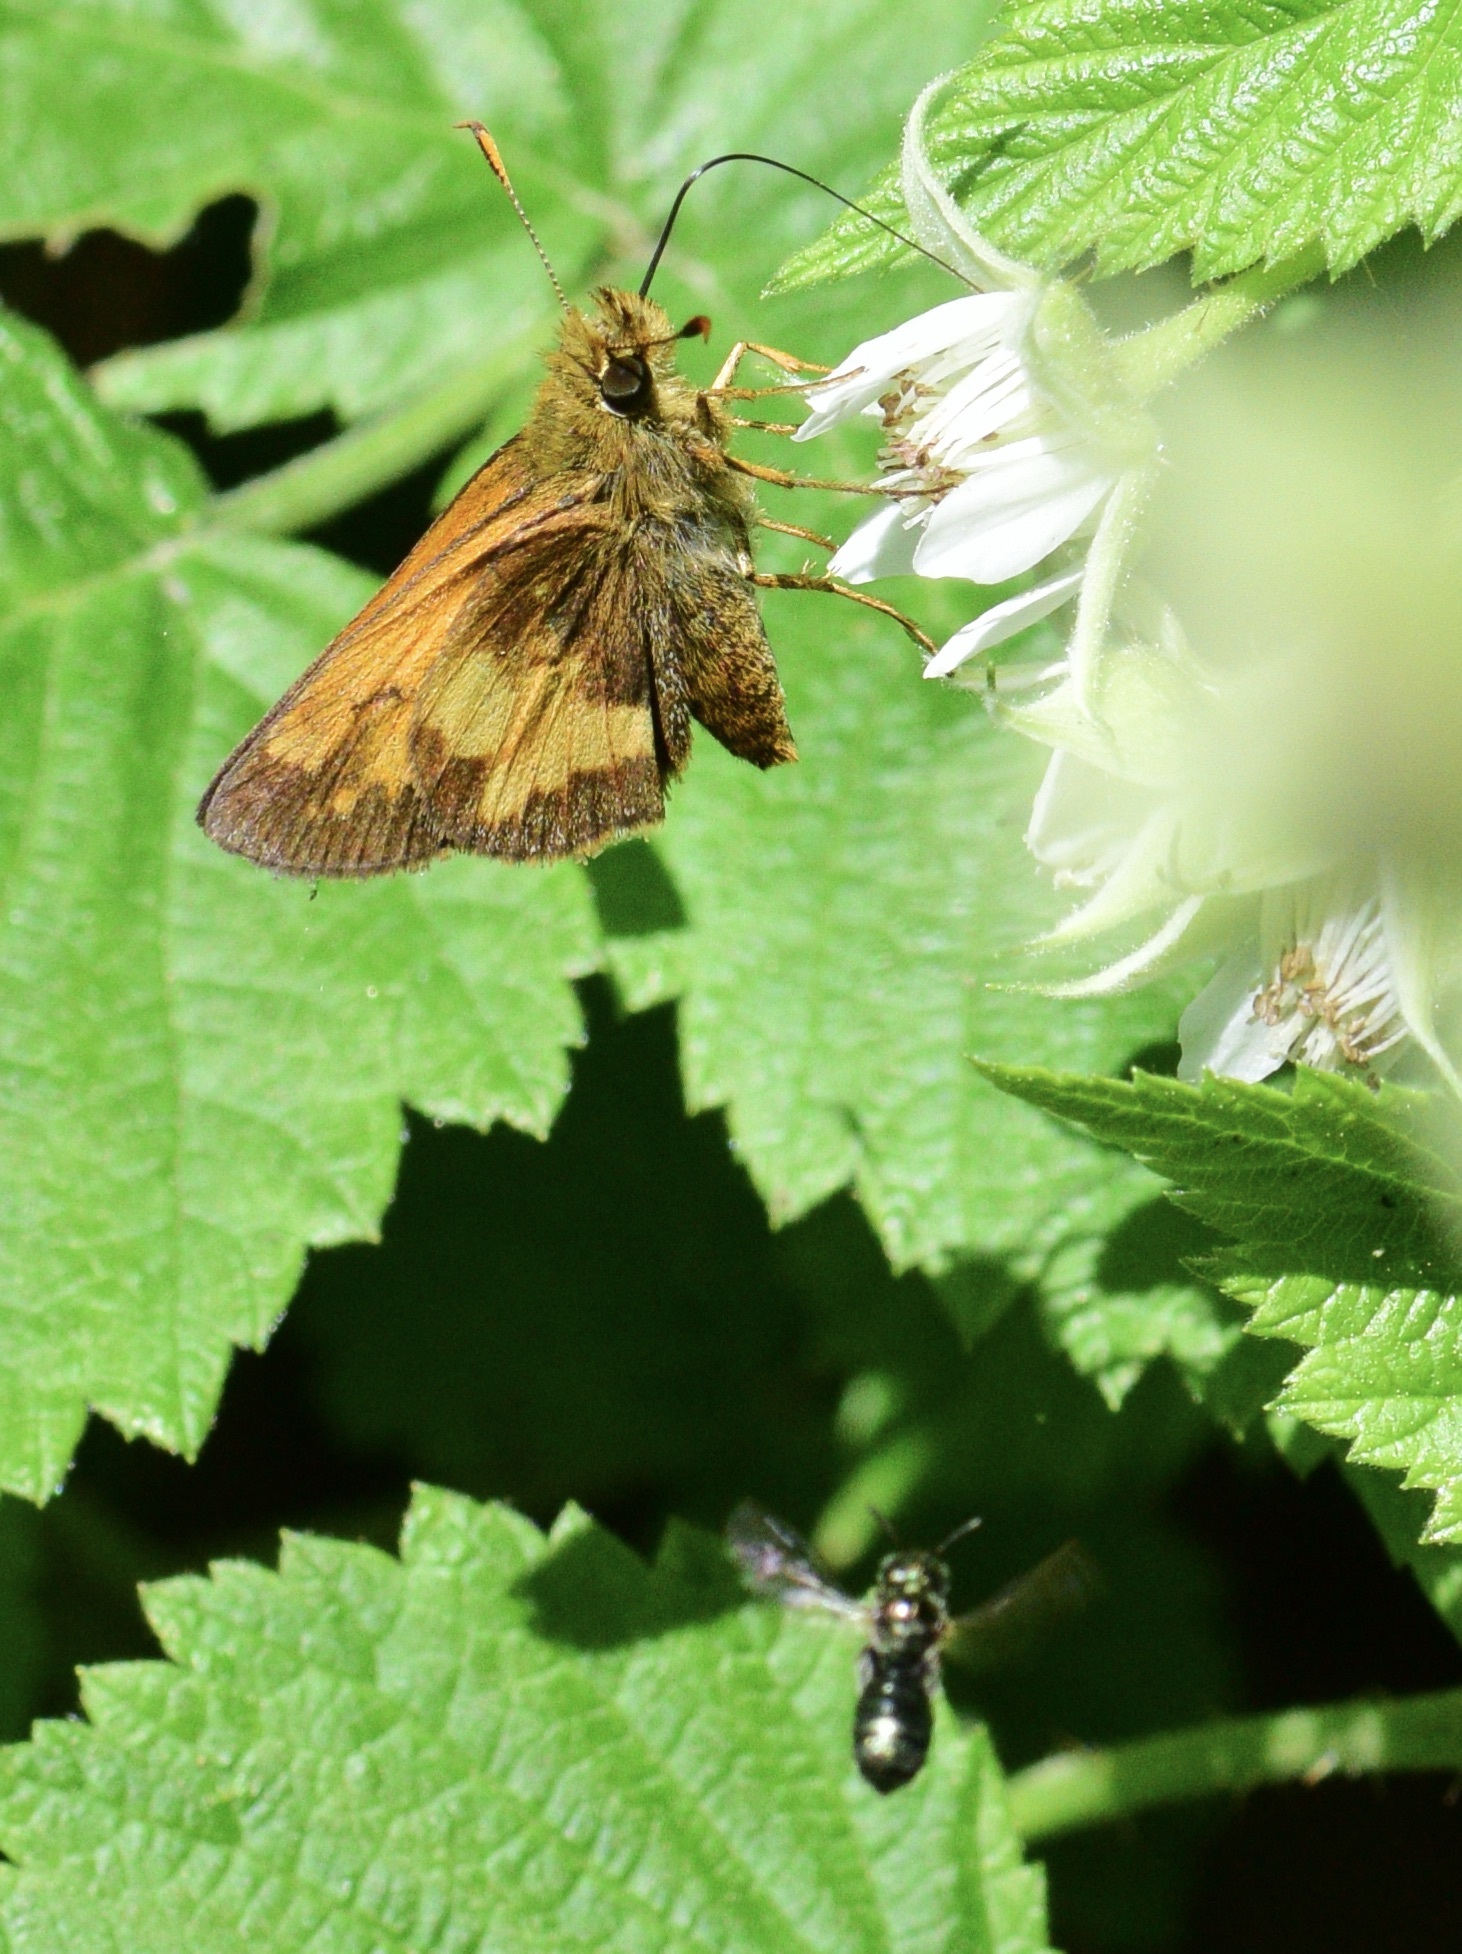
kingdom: Animalia
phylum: Arthropoda
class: Insecta
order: Lepidoptera
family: Hesperiidae
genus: Lon
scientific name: Lon hobomok
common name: Hobomok skipper
